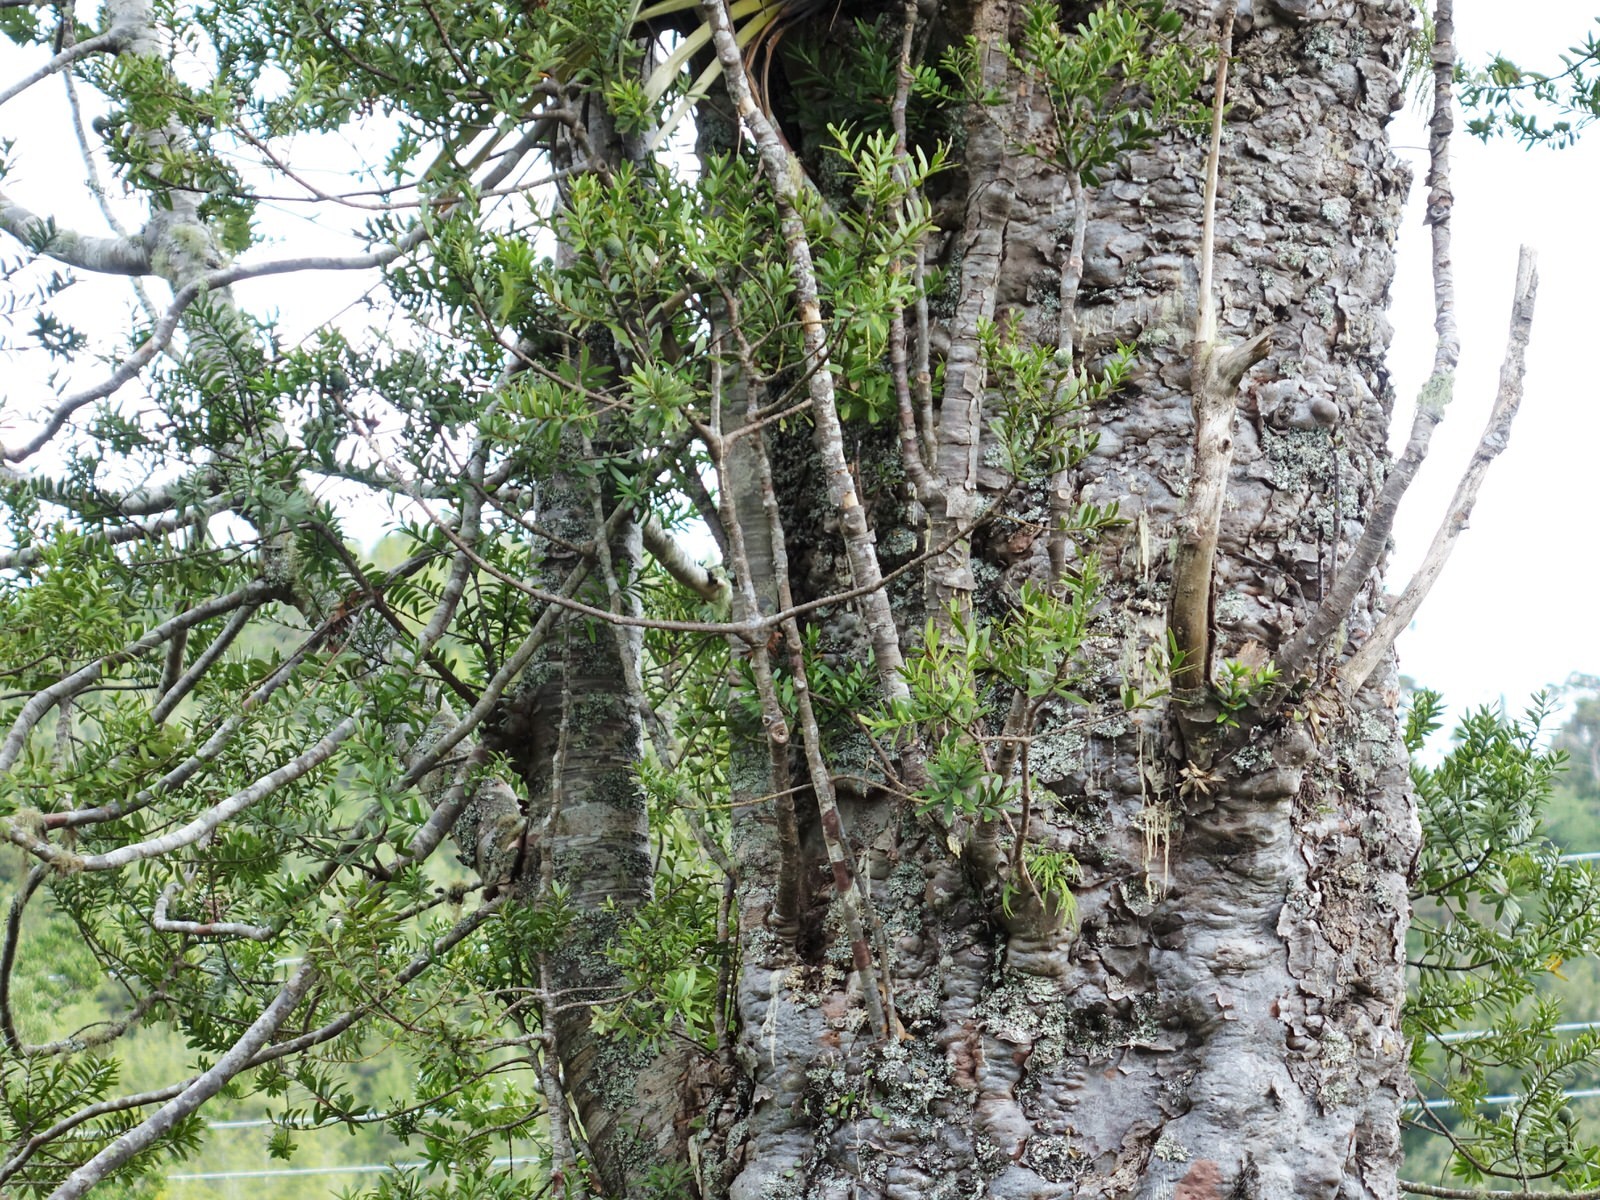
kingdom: Plantae
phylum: Tracheophyta
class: Pinopsida
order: Pinales
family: Araucariaceae
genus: Agathis
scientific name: Agathis australis
